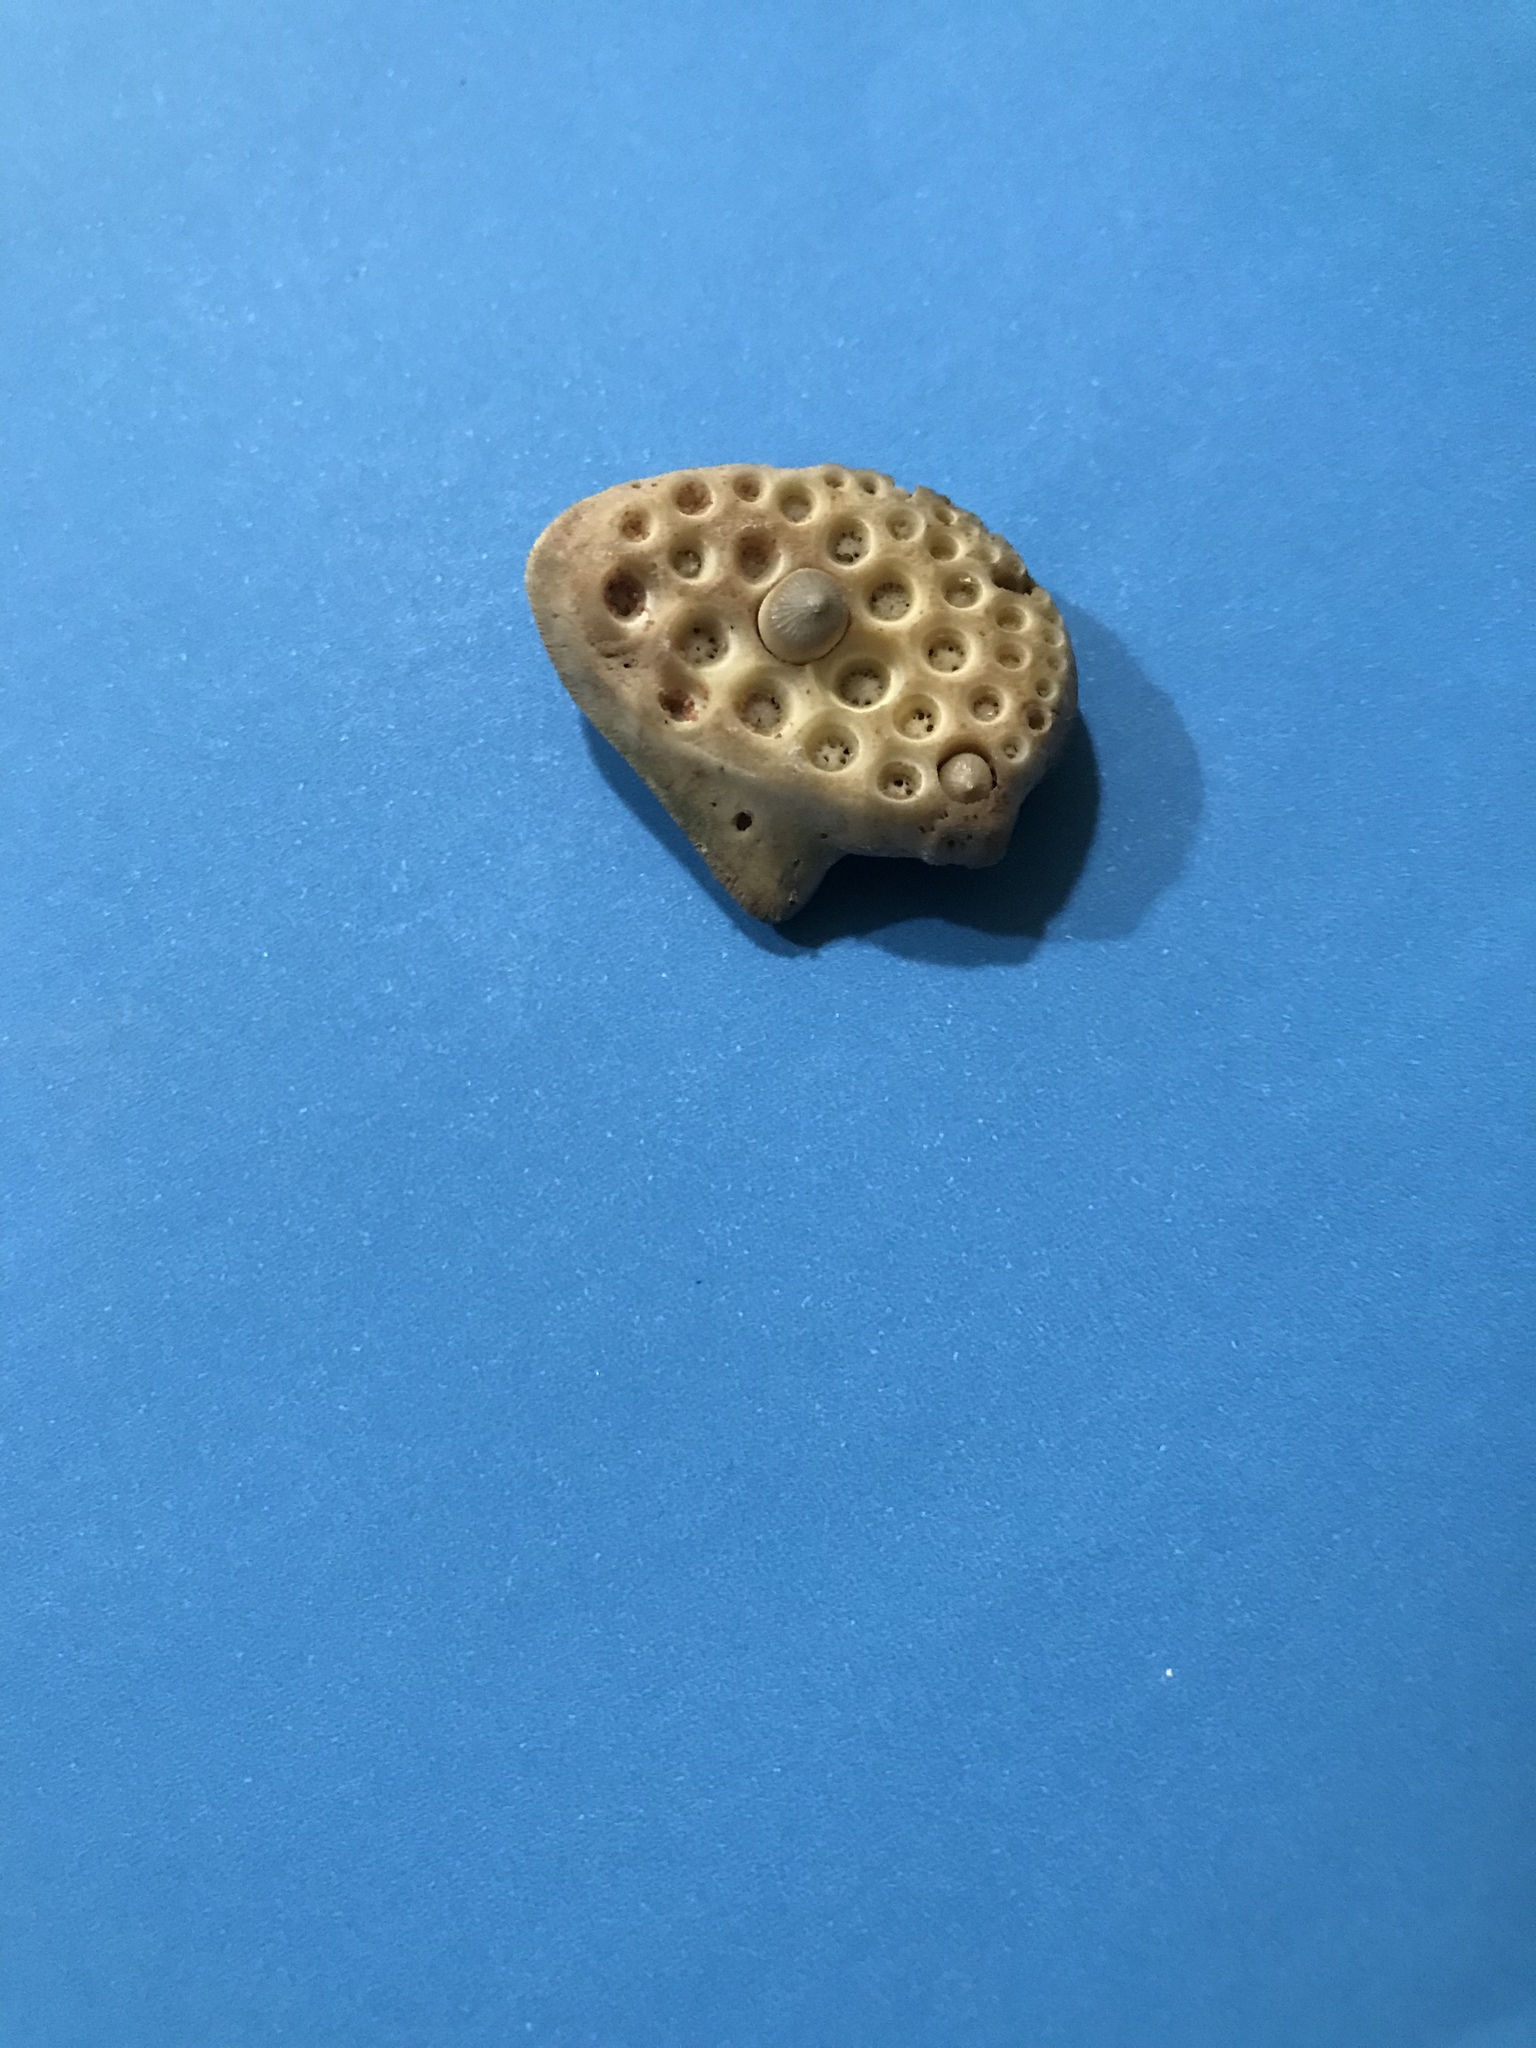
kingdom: Animalia
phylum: Chordata
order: Perciformes
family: Sciaenidae
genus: Aplodinotus
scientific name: Aplodinotus grunniens
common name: Freshwater drum
